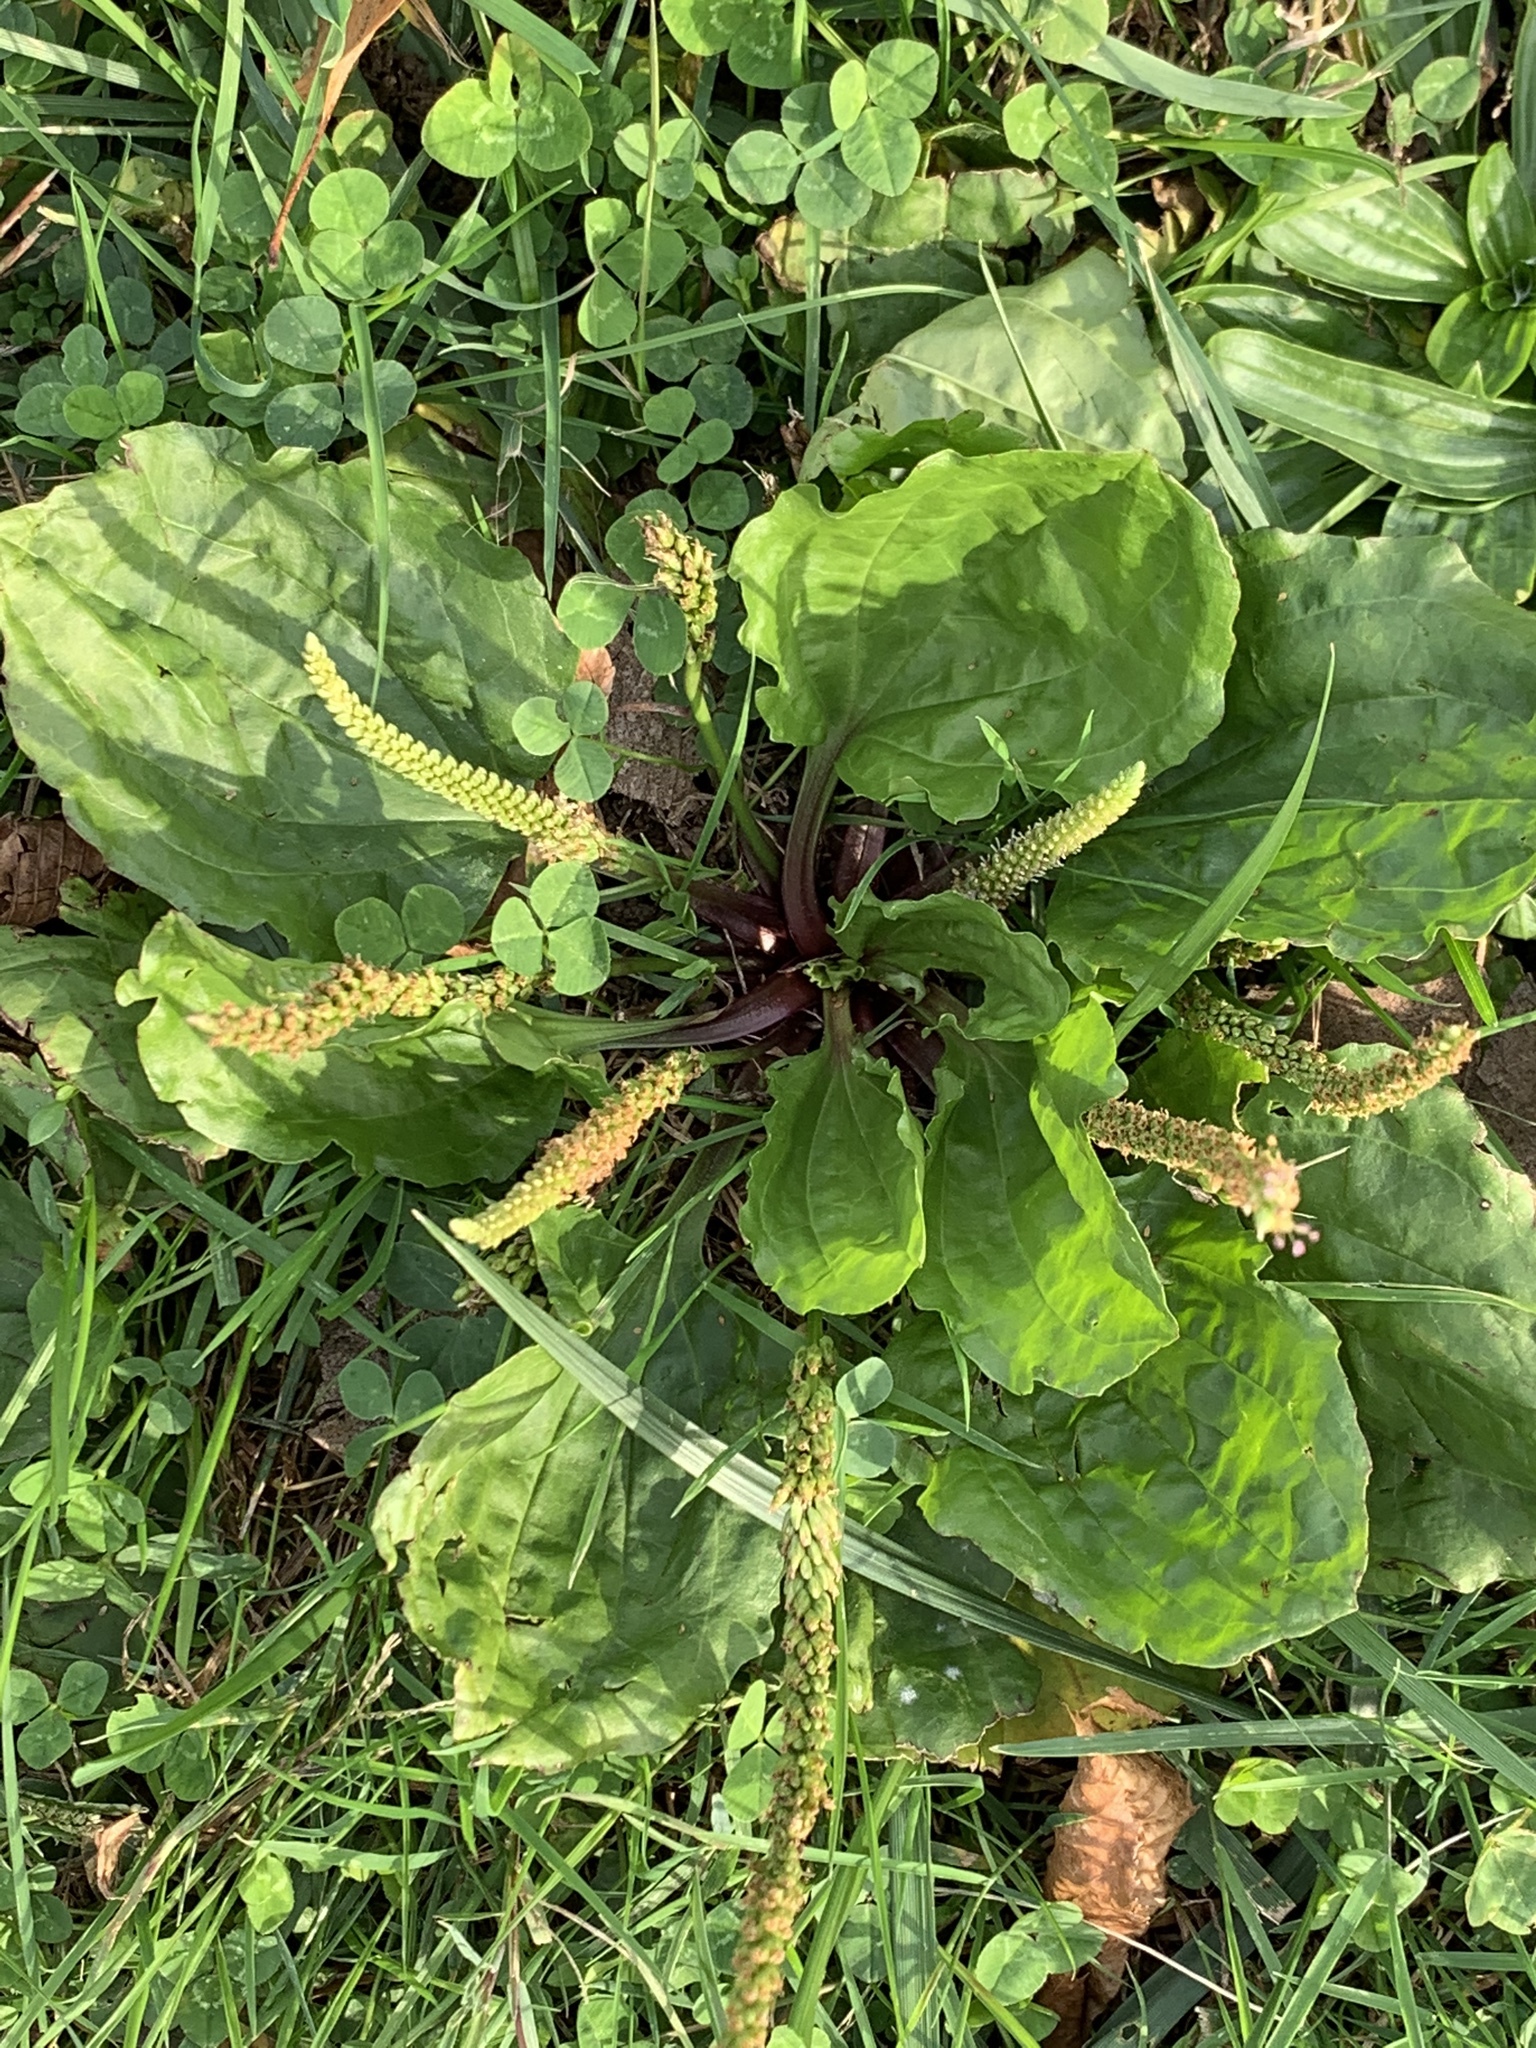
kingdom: Plantae
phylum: Tracheophyta
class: Magnoliopsida
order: Lamiales
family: Plantaginaceae
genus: Plantago
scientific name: Plantago rugelii
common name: American plantain
